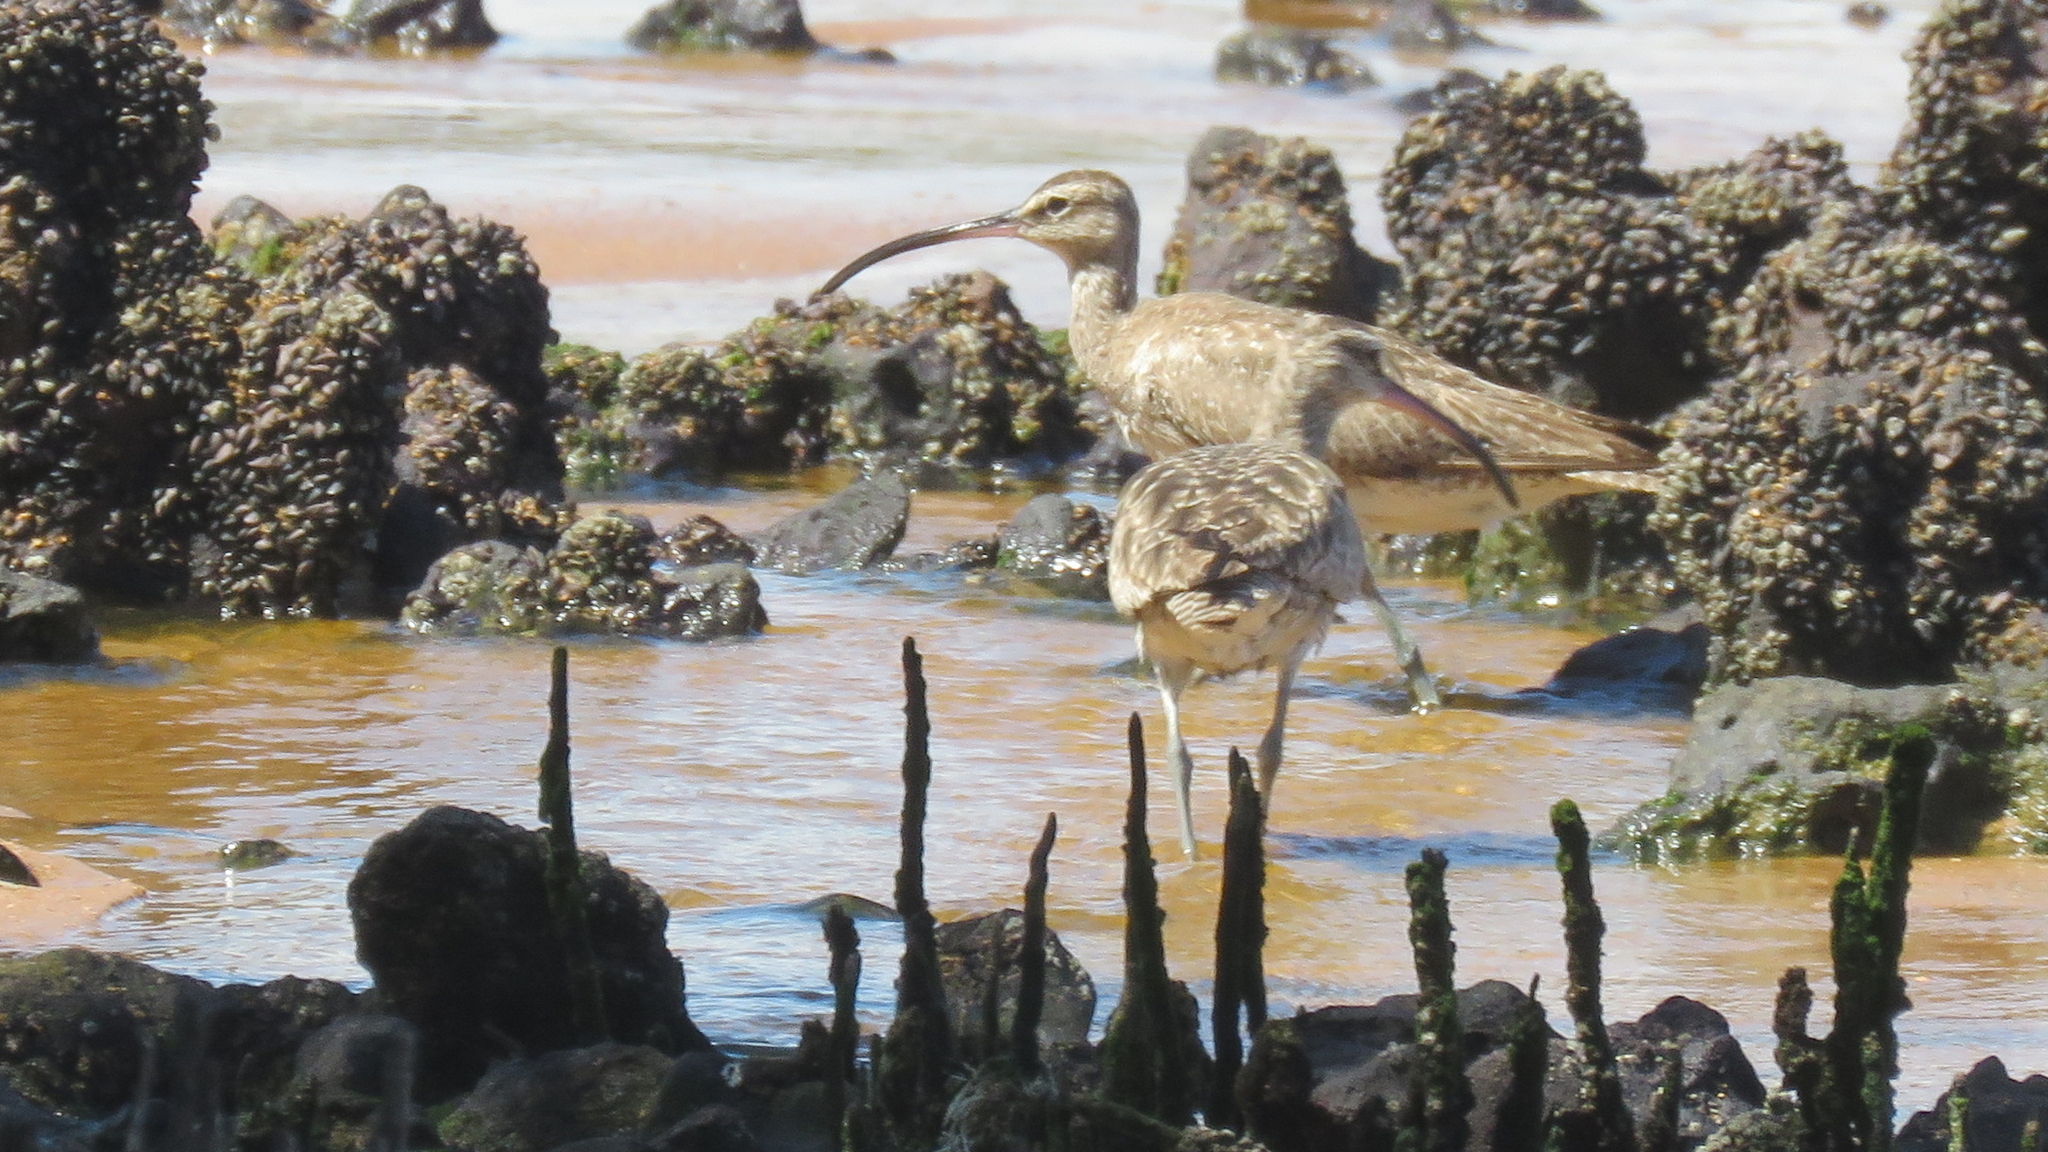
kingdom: Animalia
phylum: Chordata
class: Aves
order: Charadriiformes
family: Scolopacidae
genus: Numenius
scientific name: Numenius hudsonicus
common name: Hudsonian whimbrel
